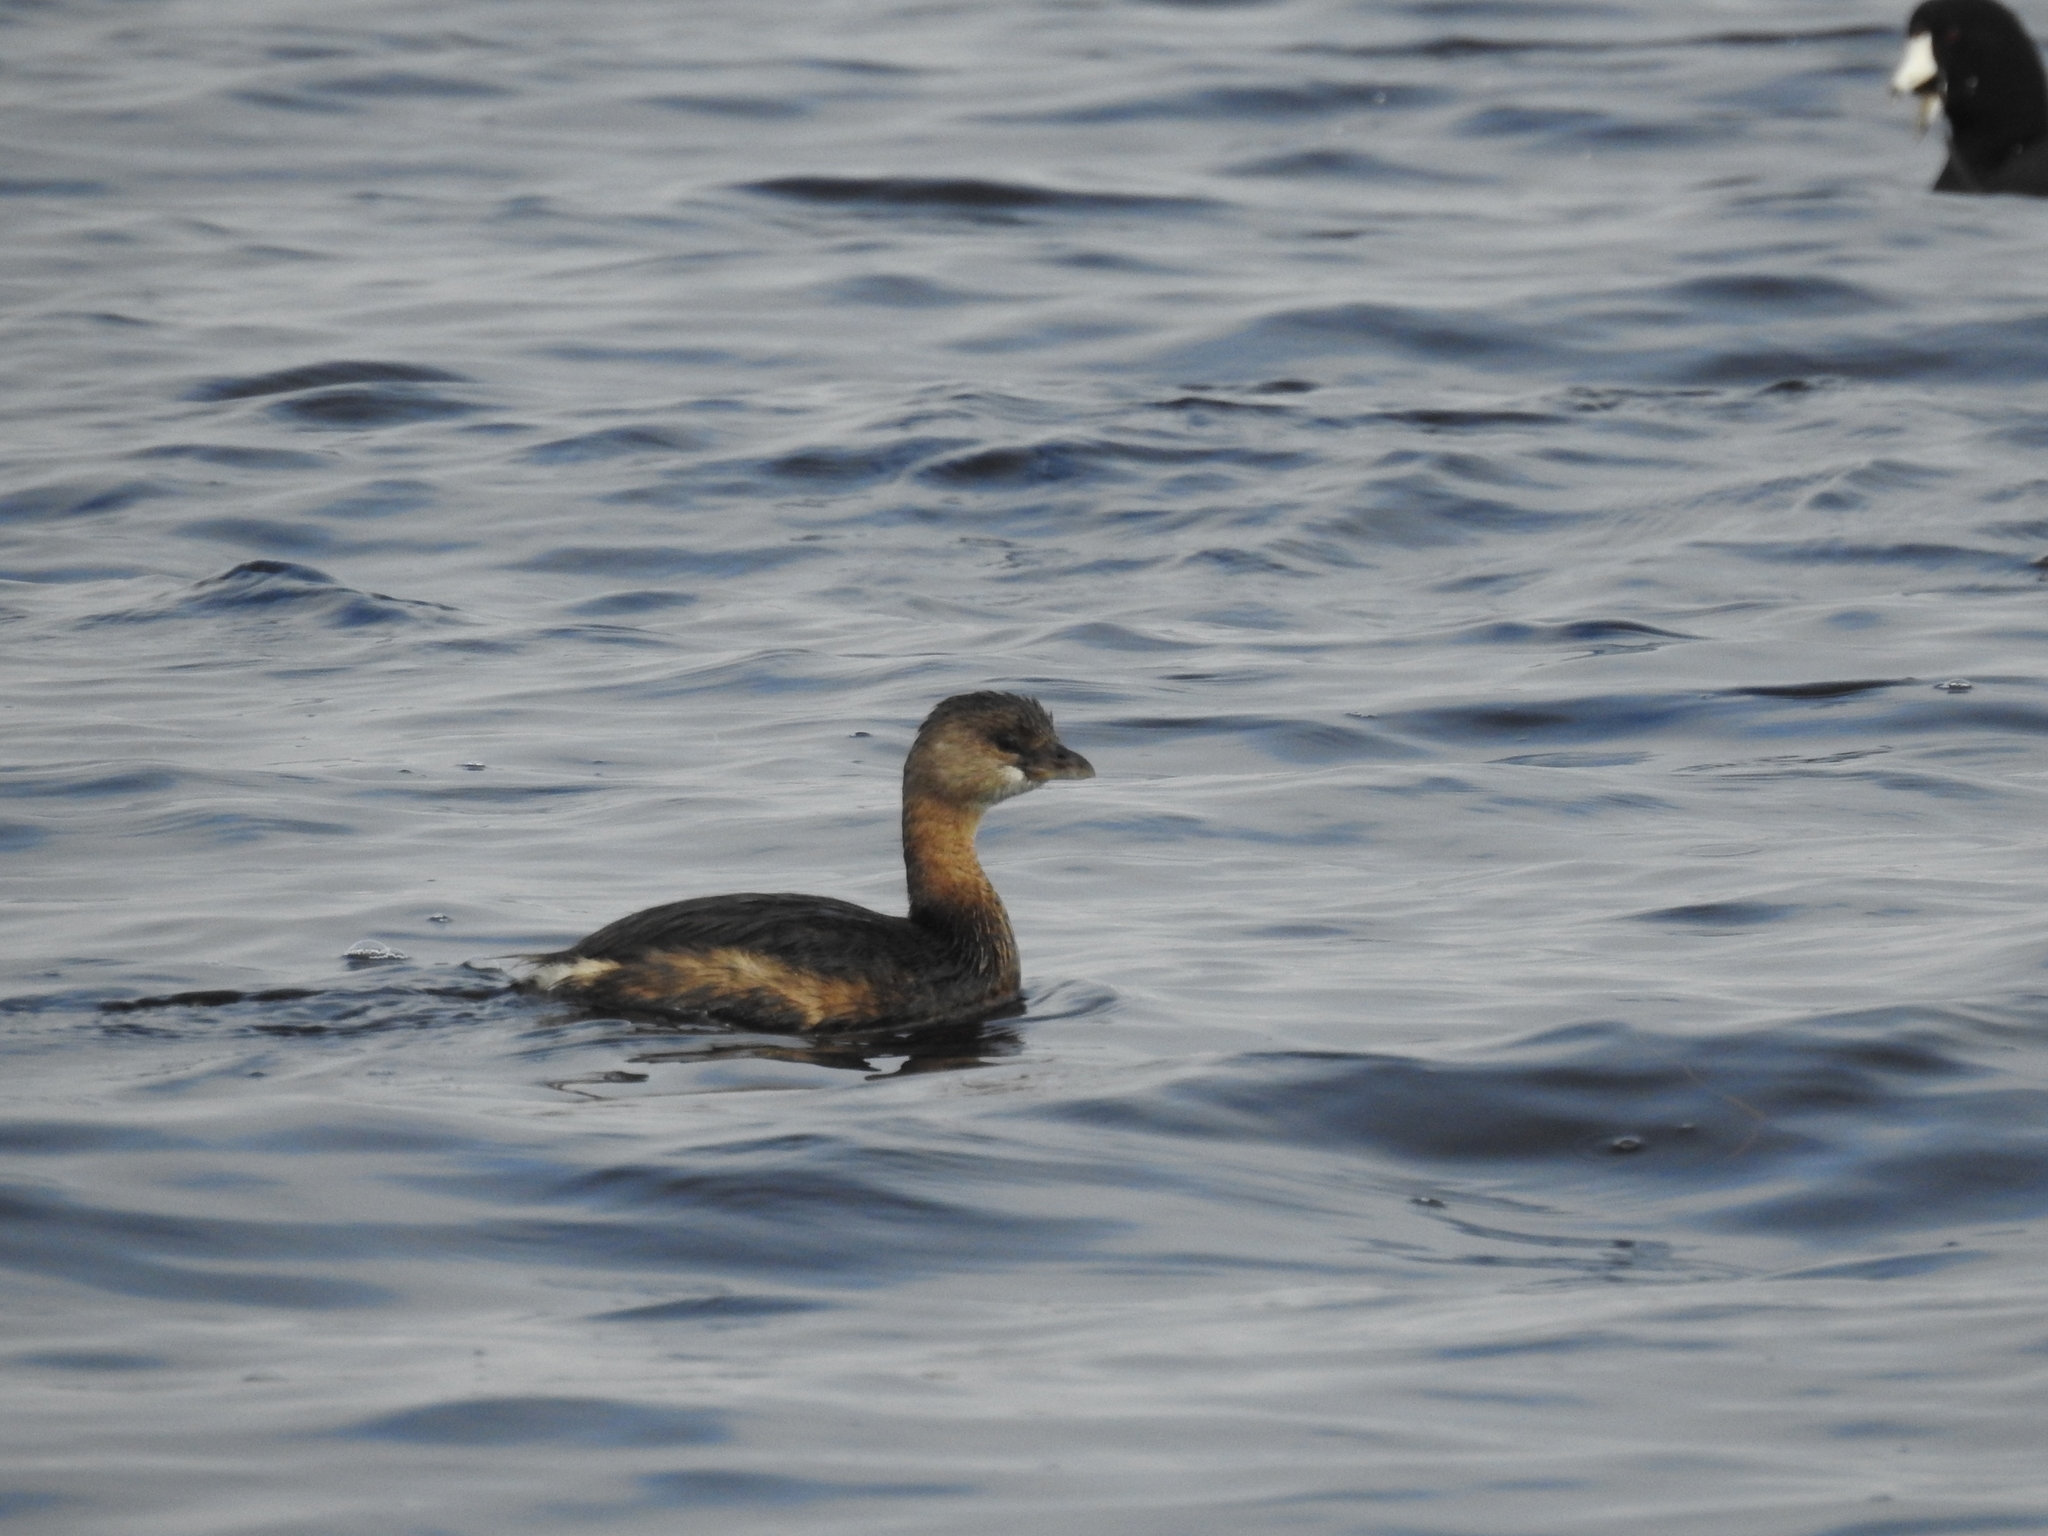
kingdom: Animalia
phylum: Chordata
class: Aves
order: Podicipediformes
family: Podicipedidae
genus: Podilymbus
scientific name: Podilymbus podiceps
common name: Pied-billed grebe
